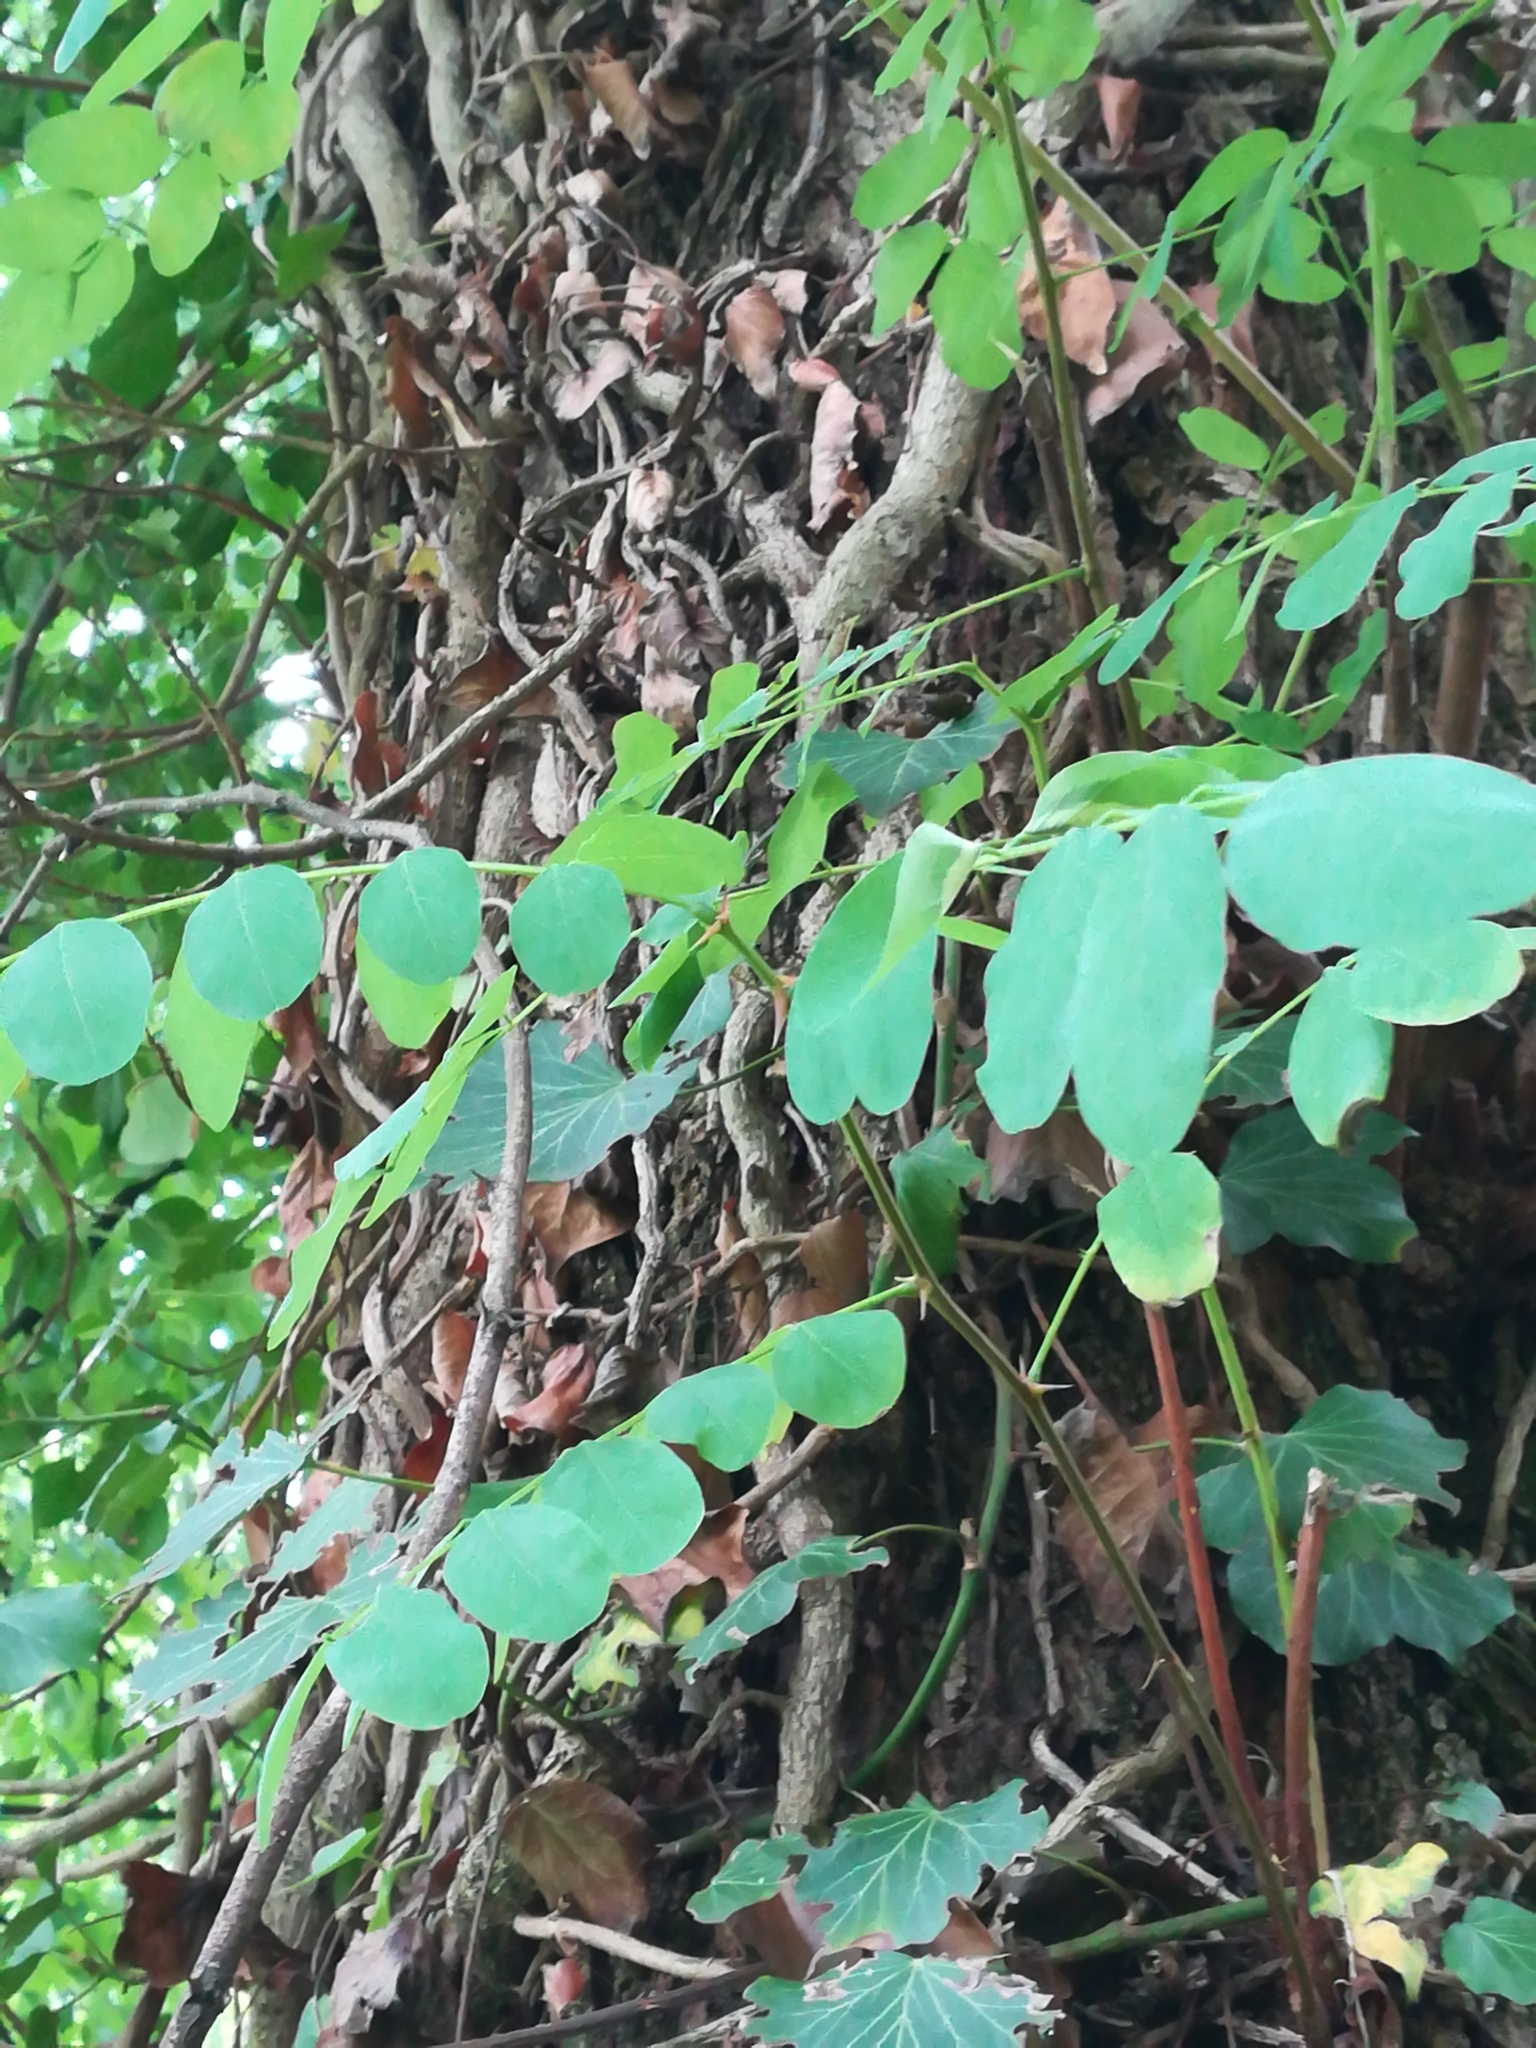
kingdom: Plantae
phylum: Tracheophyta
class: Magnoliopsida
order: Fabales
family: Fabaceae
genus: Robinia
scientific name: Robinia pseudoacacia
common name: Black locust
